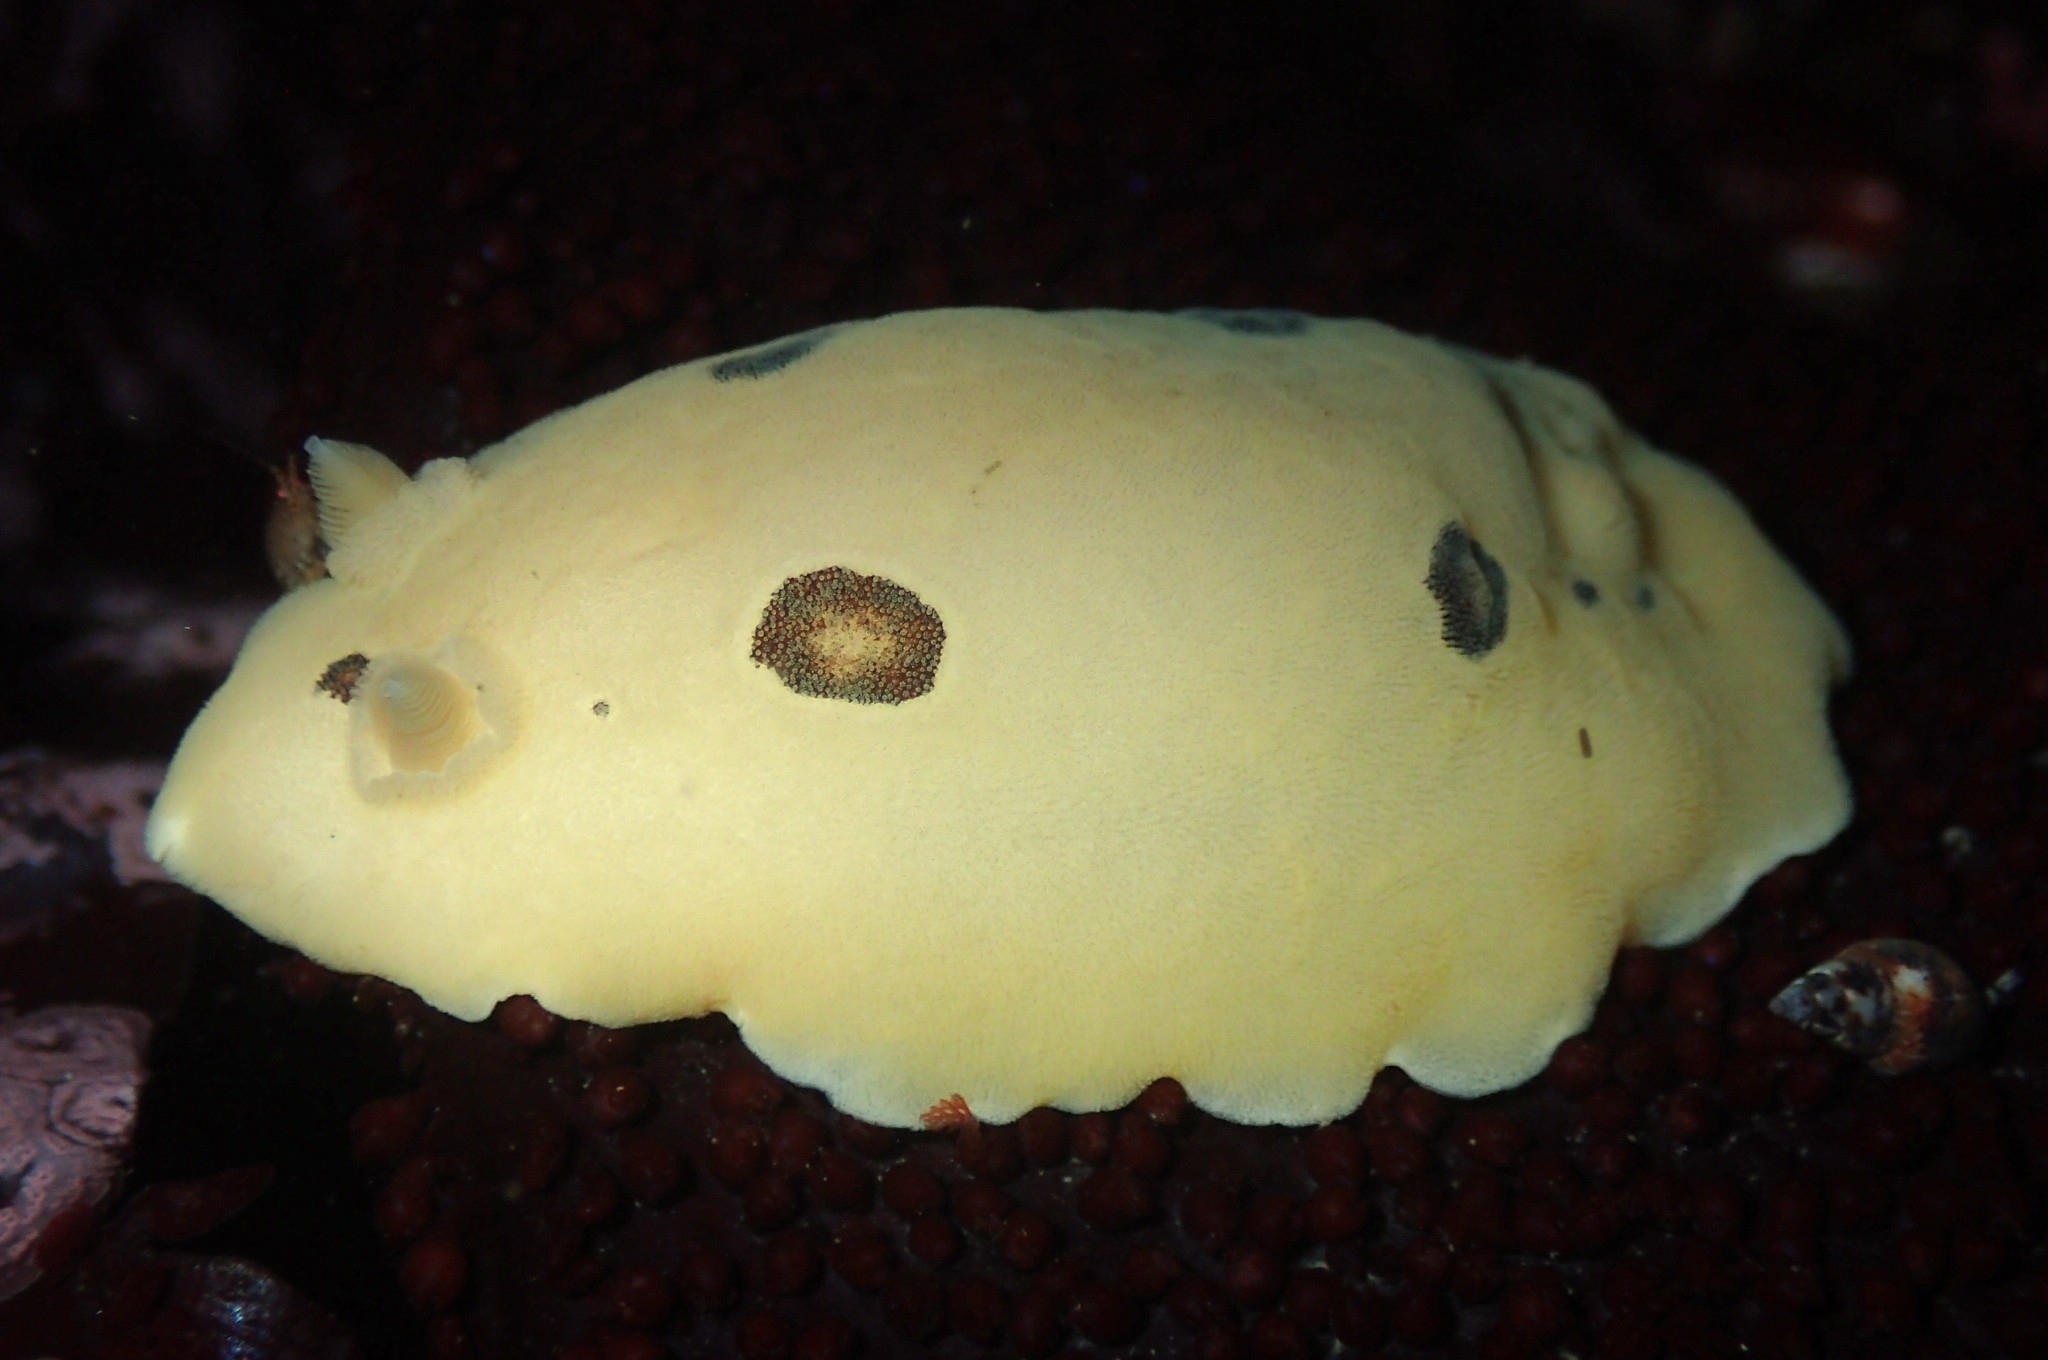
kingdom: Animalia
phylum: Mollusca
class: Gastropoda
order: Nudibranchia
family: Discodorididae
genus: Diaulula
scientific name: Diaulula sandiegensis
